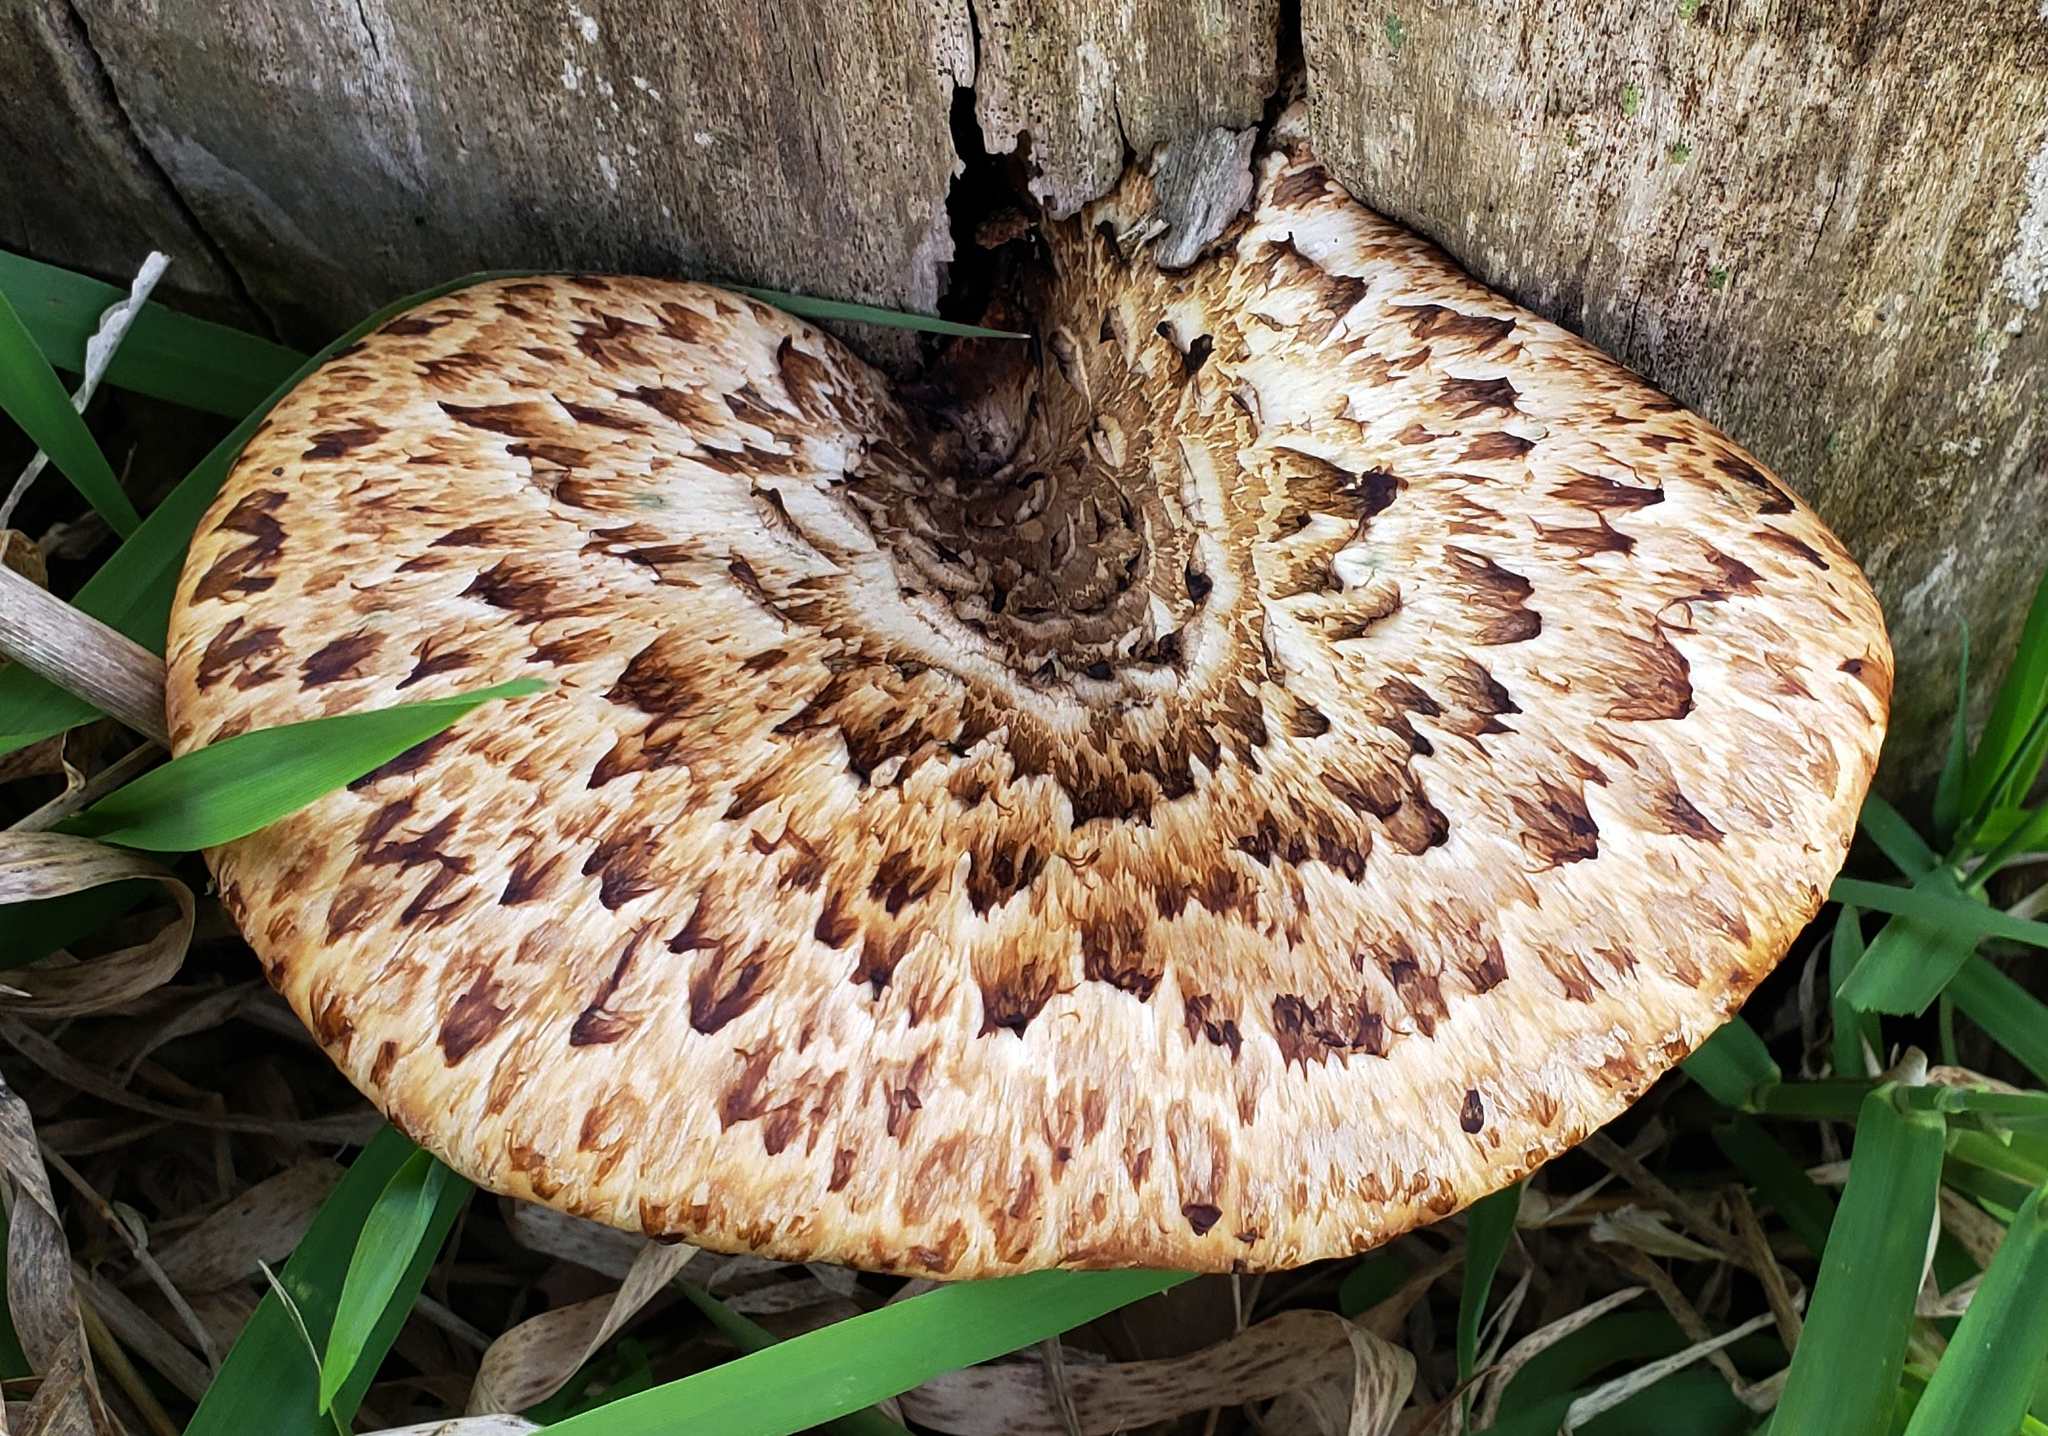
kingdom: Fungi
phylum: Basidiomycota
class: Agaricomycetes
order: Polyporales
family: Polyporaceae
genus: Cerioporus
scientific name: Cerioporus squamosus
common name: Dryad's saddle
